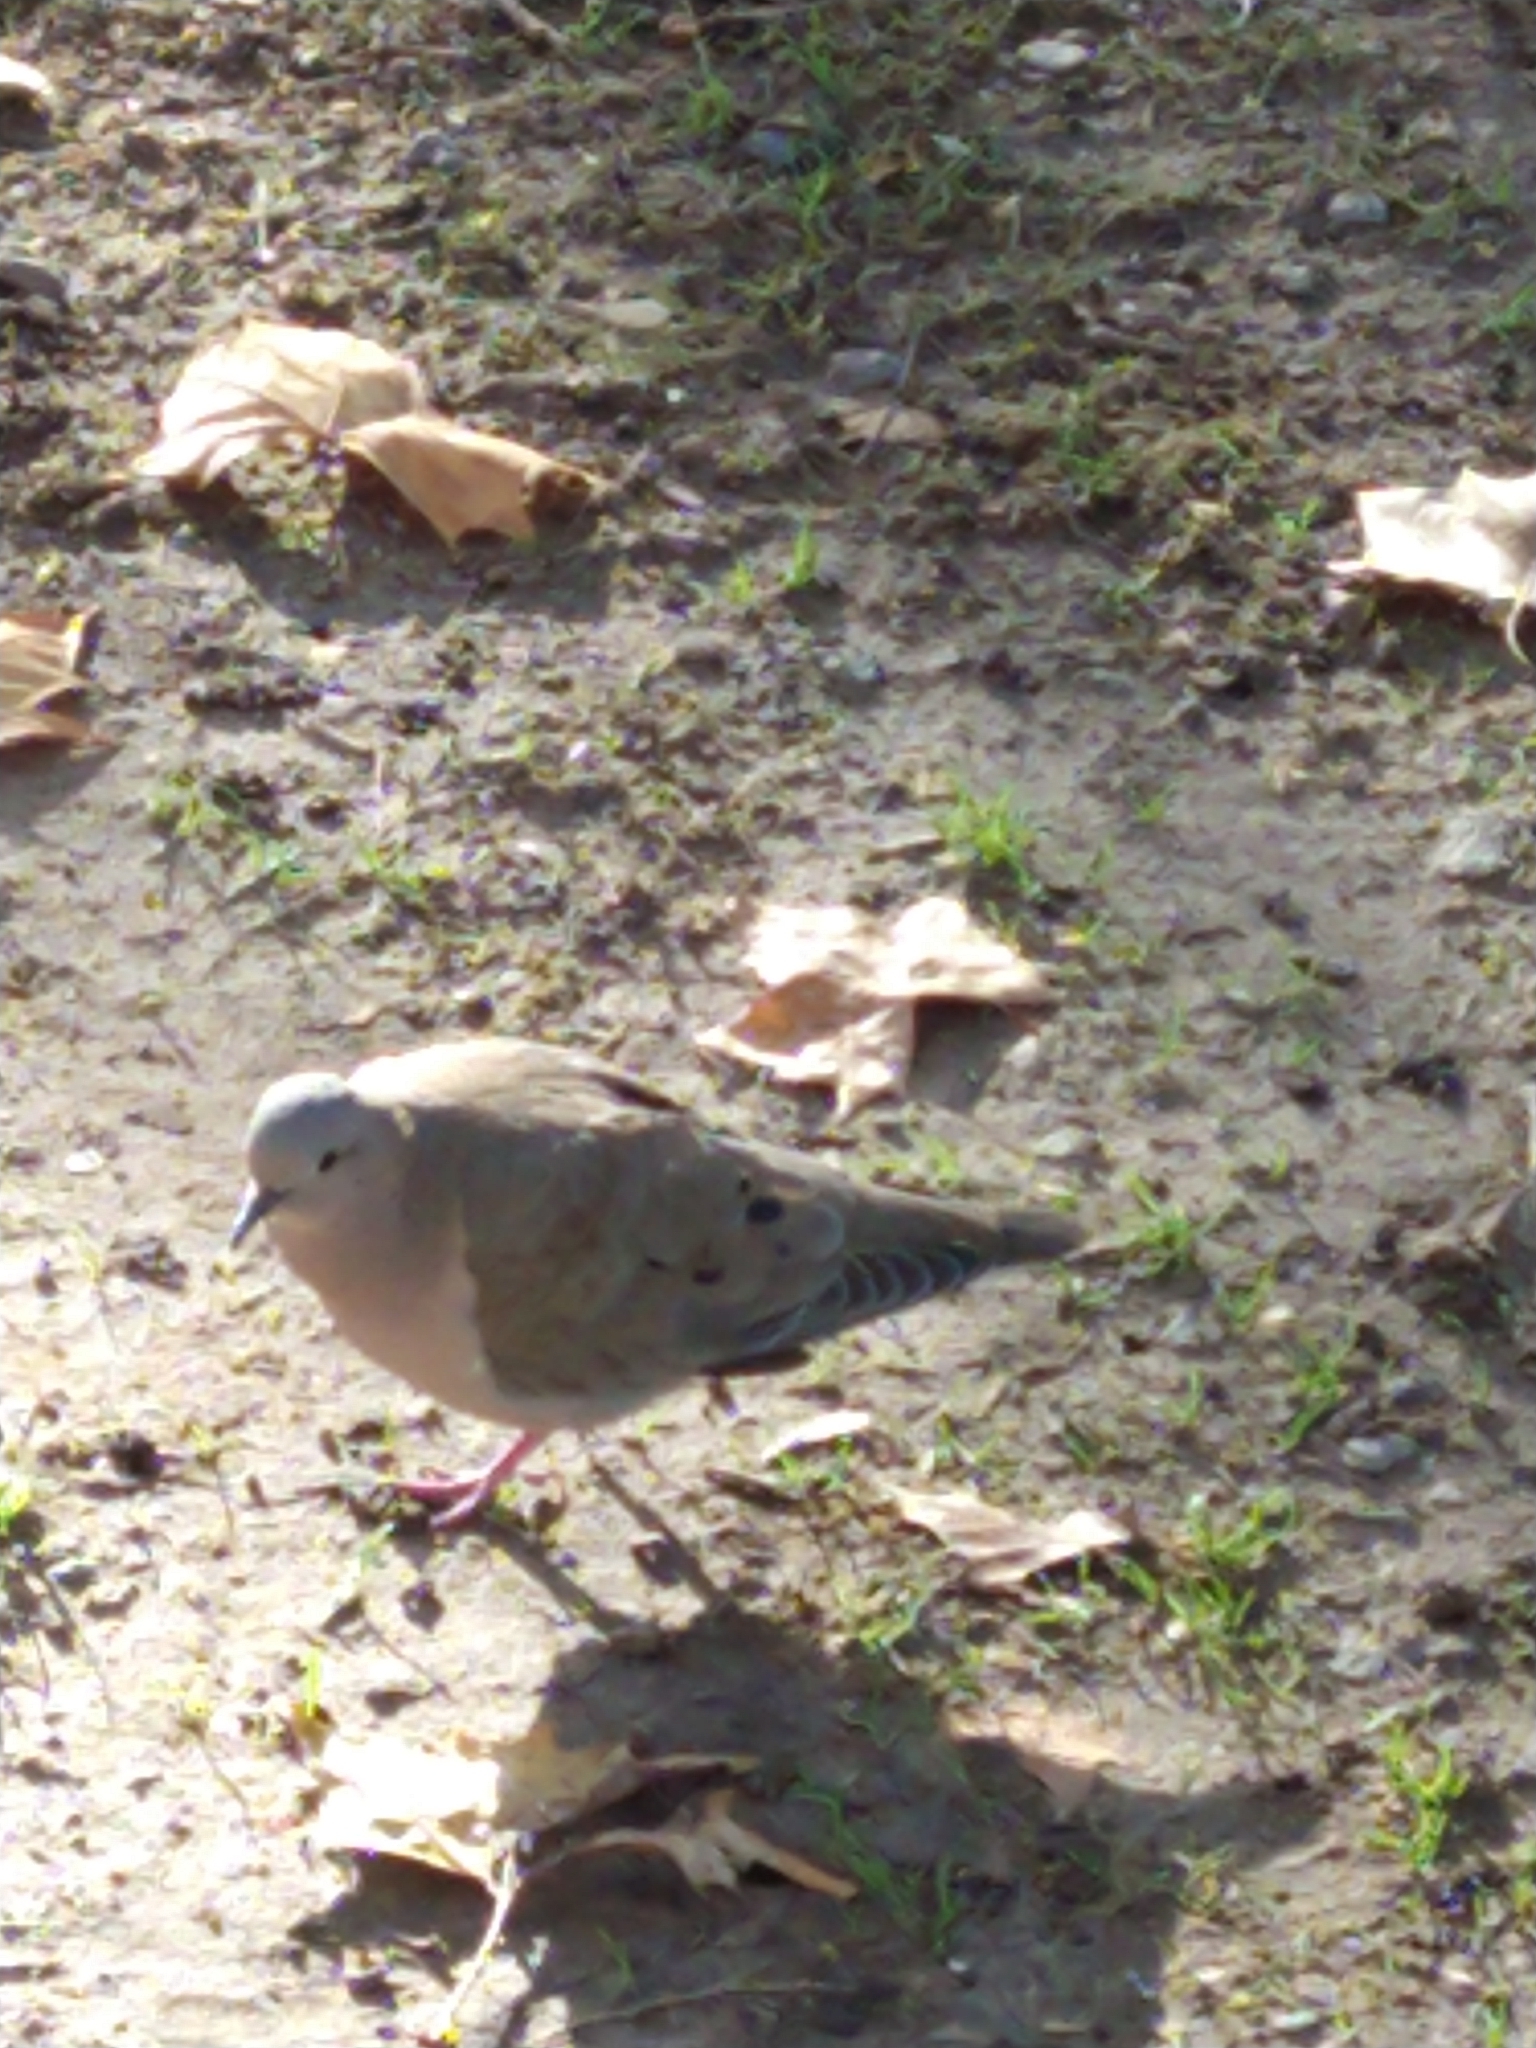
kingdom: Animalia
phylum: Chordata
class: Aves
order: Columbiformes
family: Columbidae
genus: Zenaida
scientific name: Zenaida auriculata
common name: Eared dove
